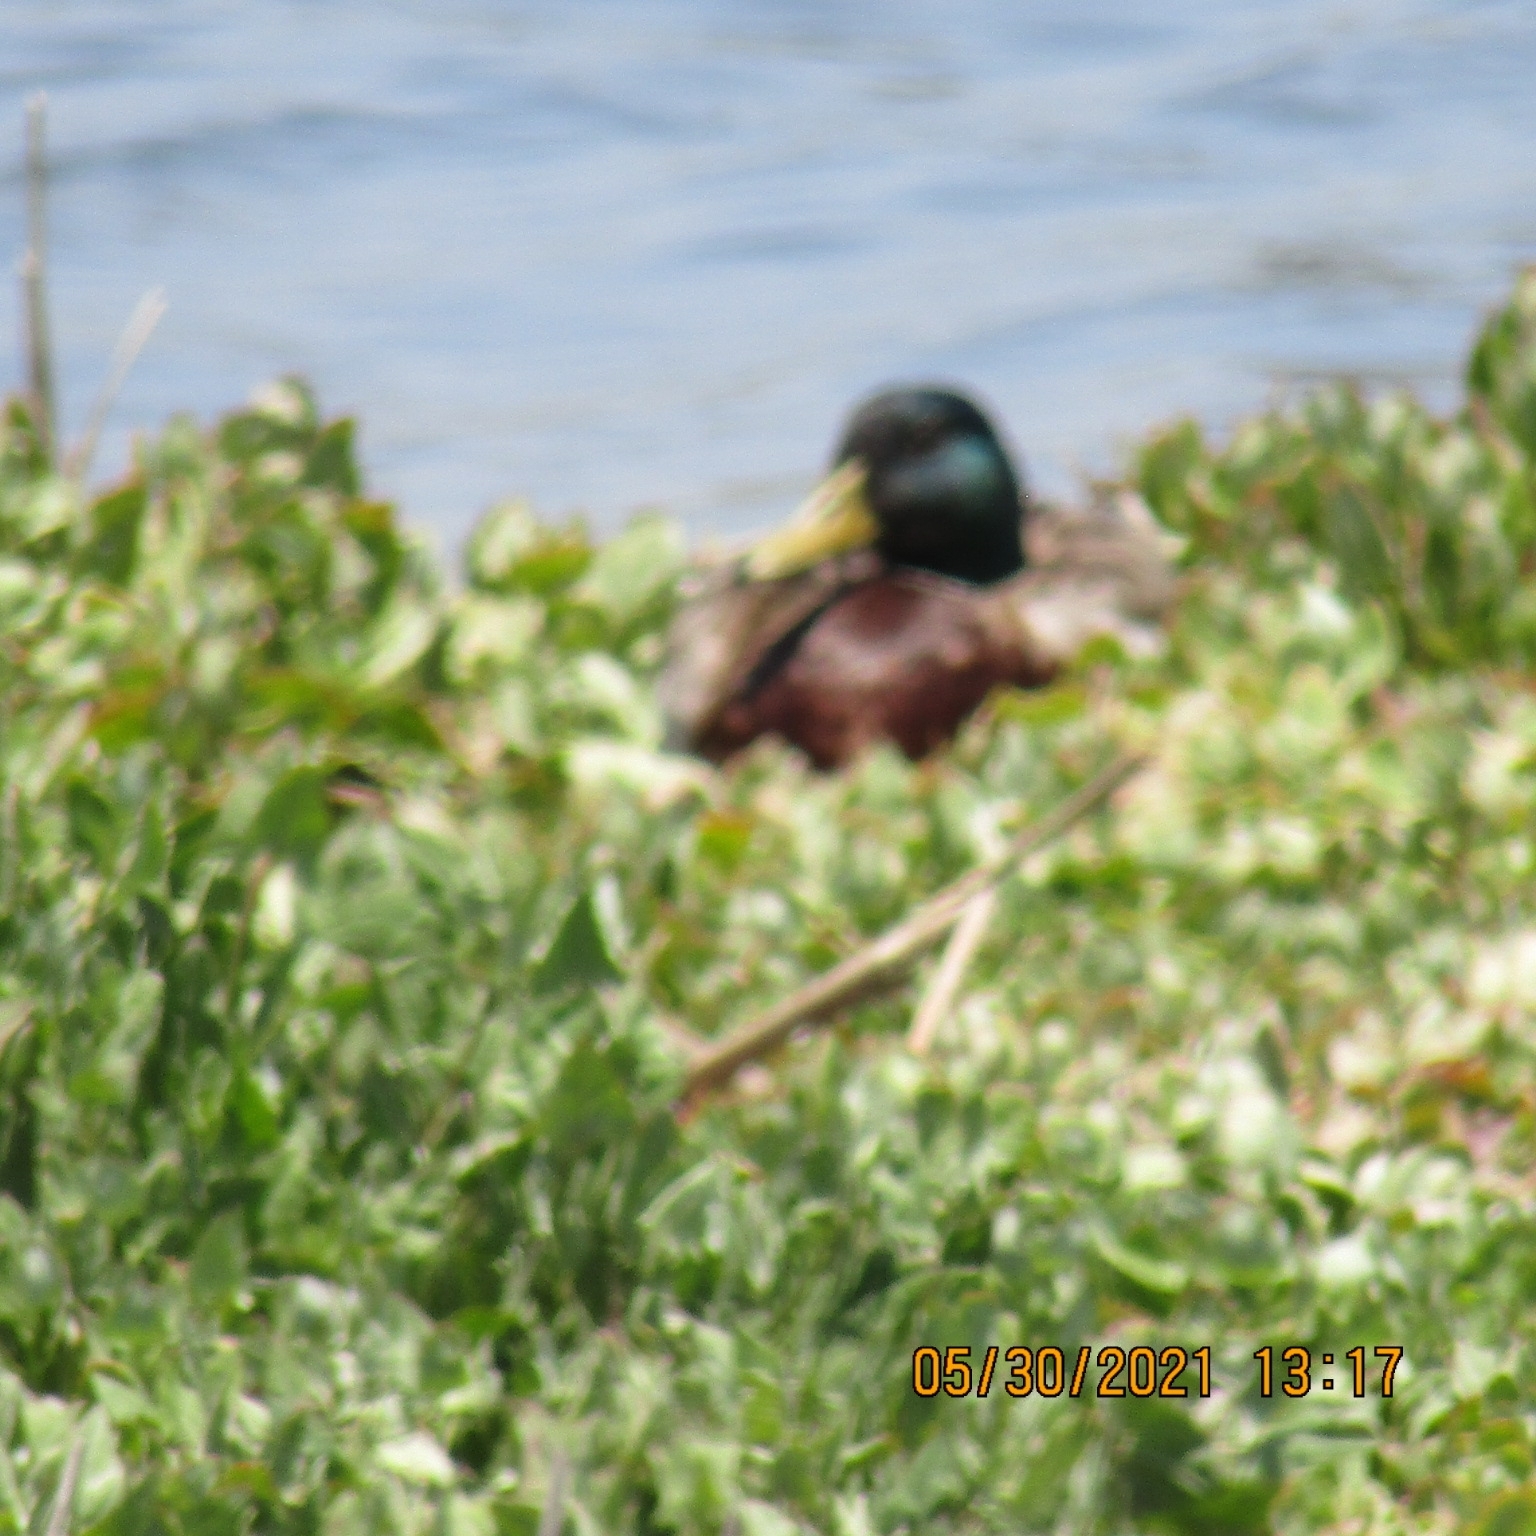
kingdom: Animalia
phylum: Chordata
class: Aves
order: Anseriformes
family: Anatidae
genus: Anas
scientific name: Anas platyrhynchos
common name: Mallard
